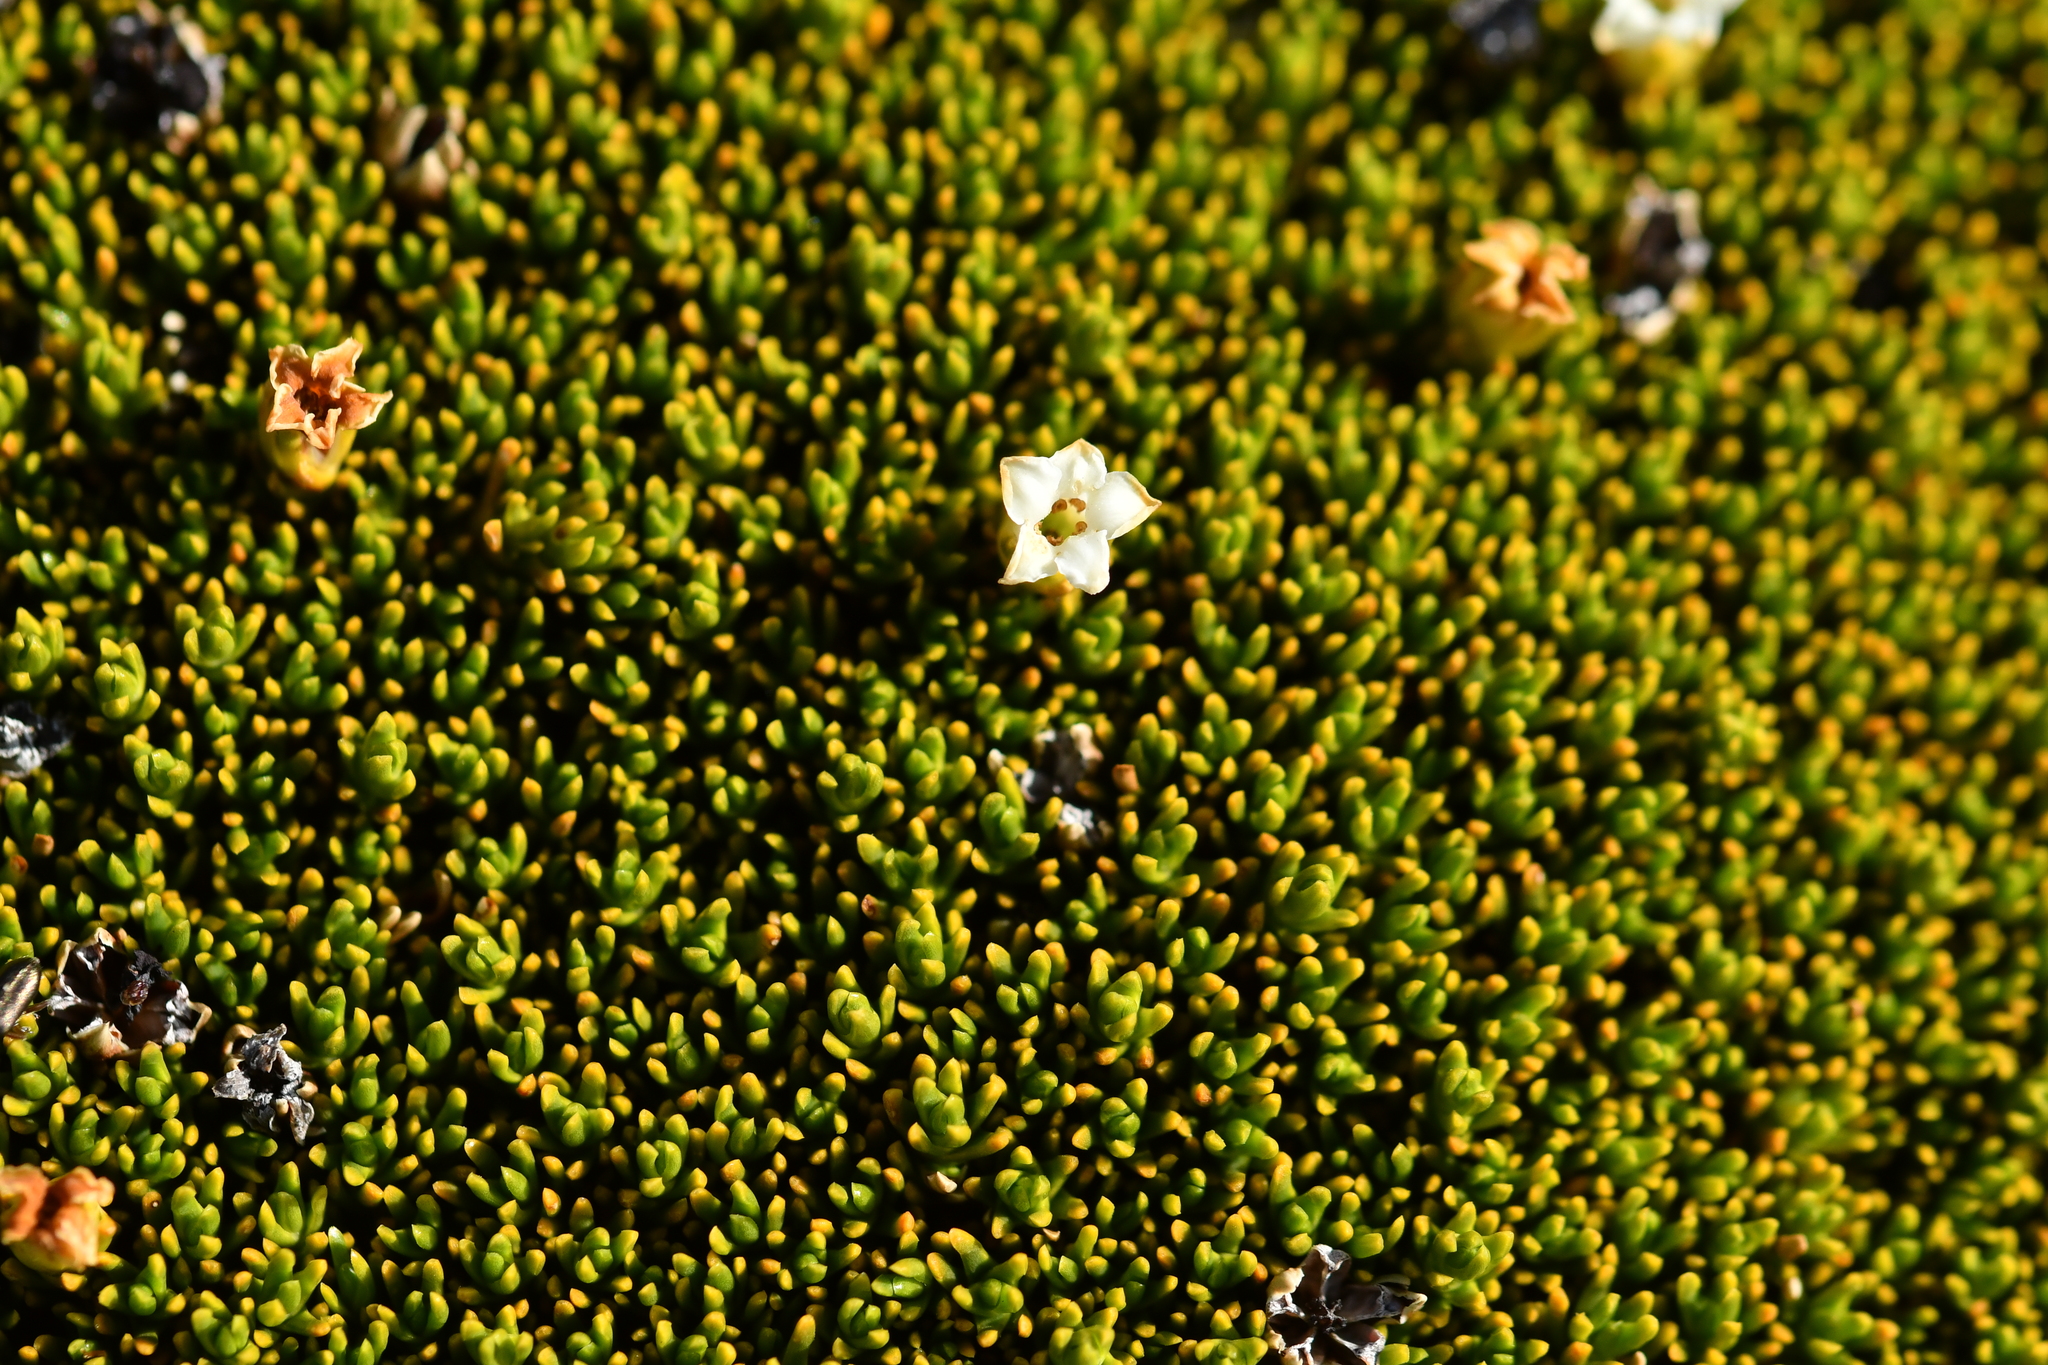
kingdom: Plantae
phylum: Tracheophyta
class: Magnoliopsida
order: Ericales
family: Ericaceae
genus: Dracophyllum
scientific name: Dracophyllum muscoides
